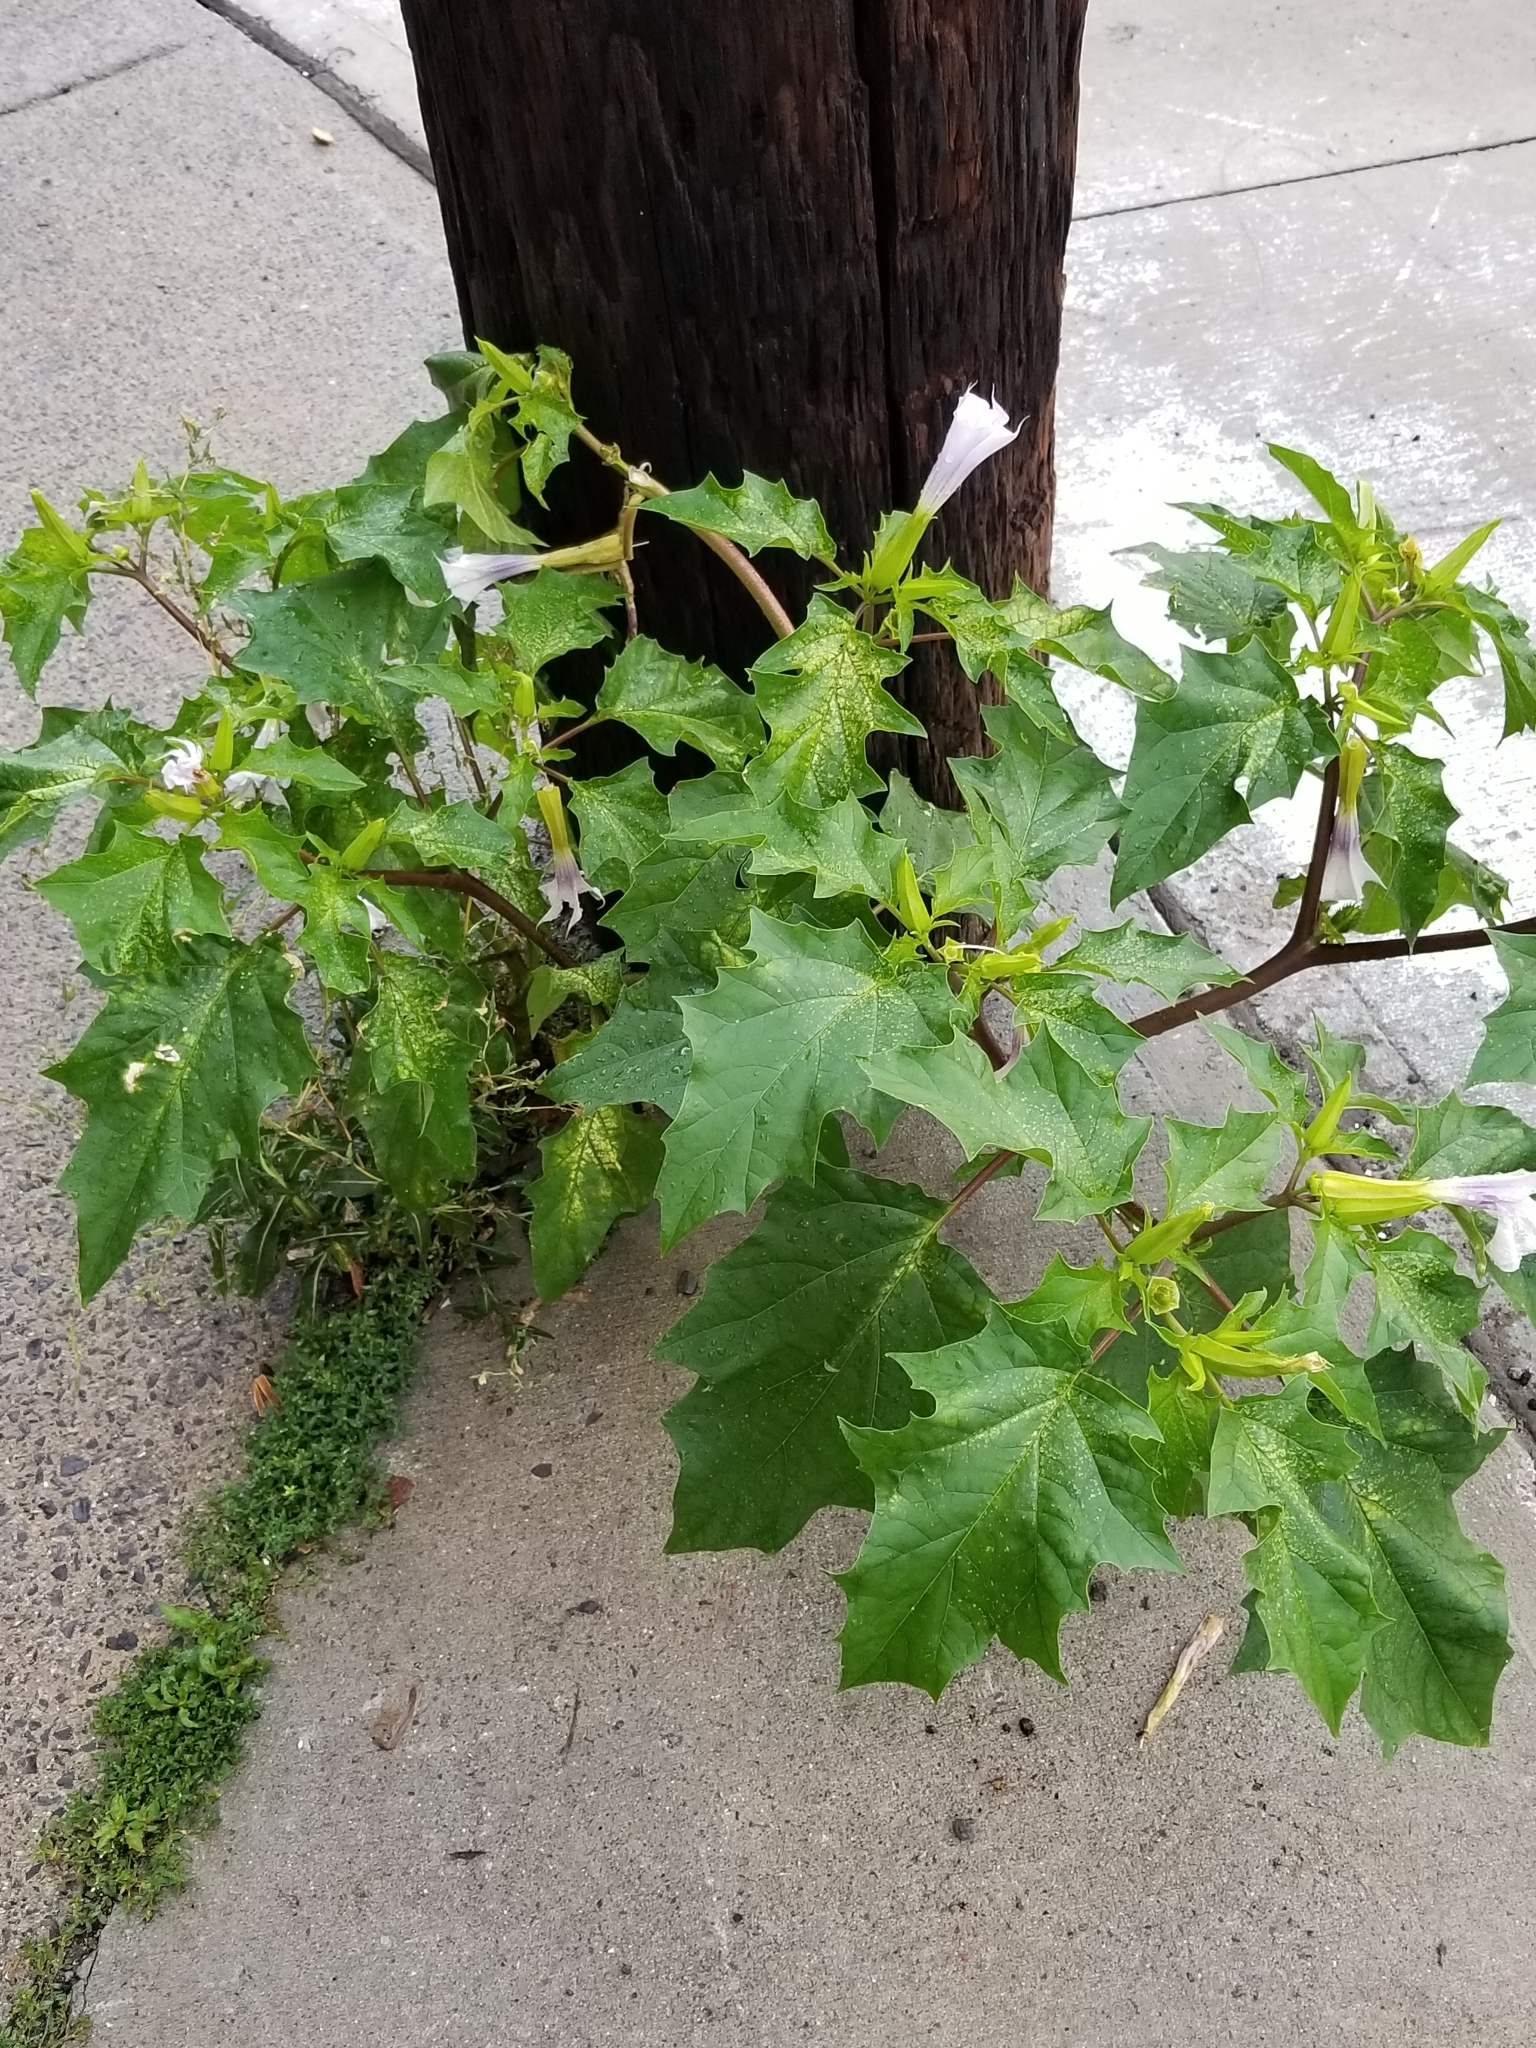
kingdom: Plantae
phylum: Tracheophyta
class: Magnoliopsida
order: Solanales
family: Solanaceae
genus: Datura
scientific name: Datura stramonium
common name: Thorn-apple
